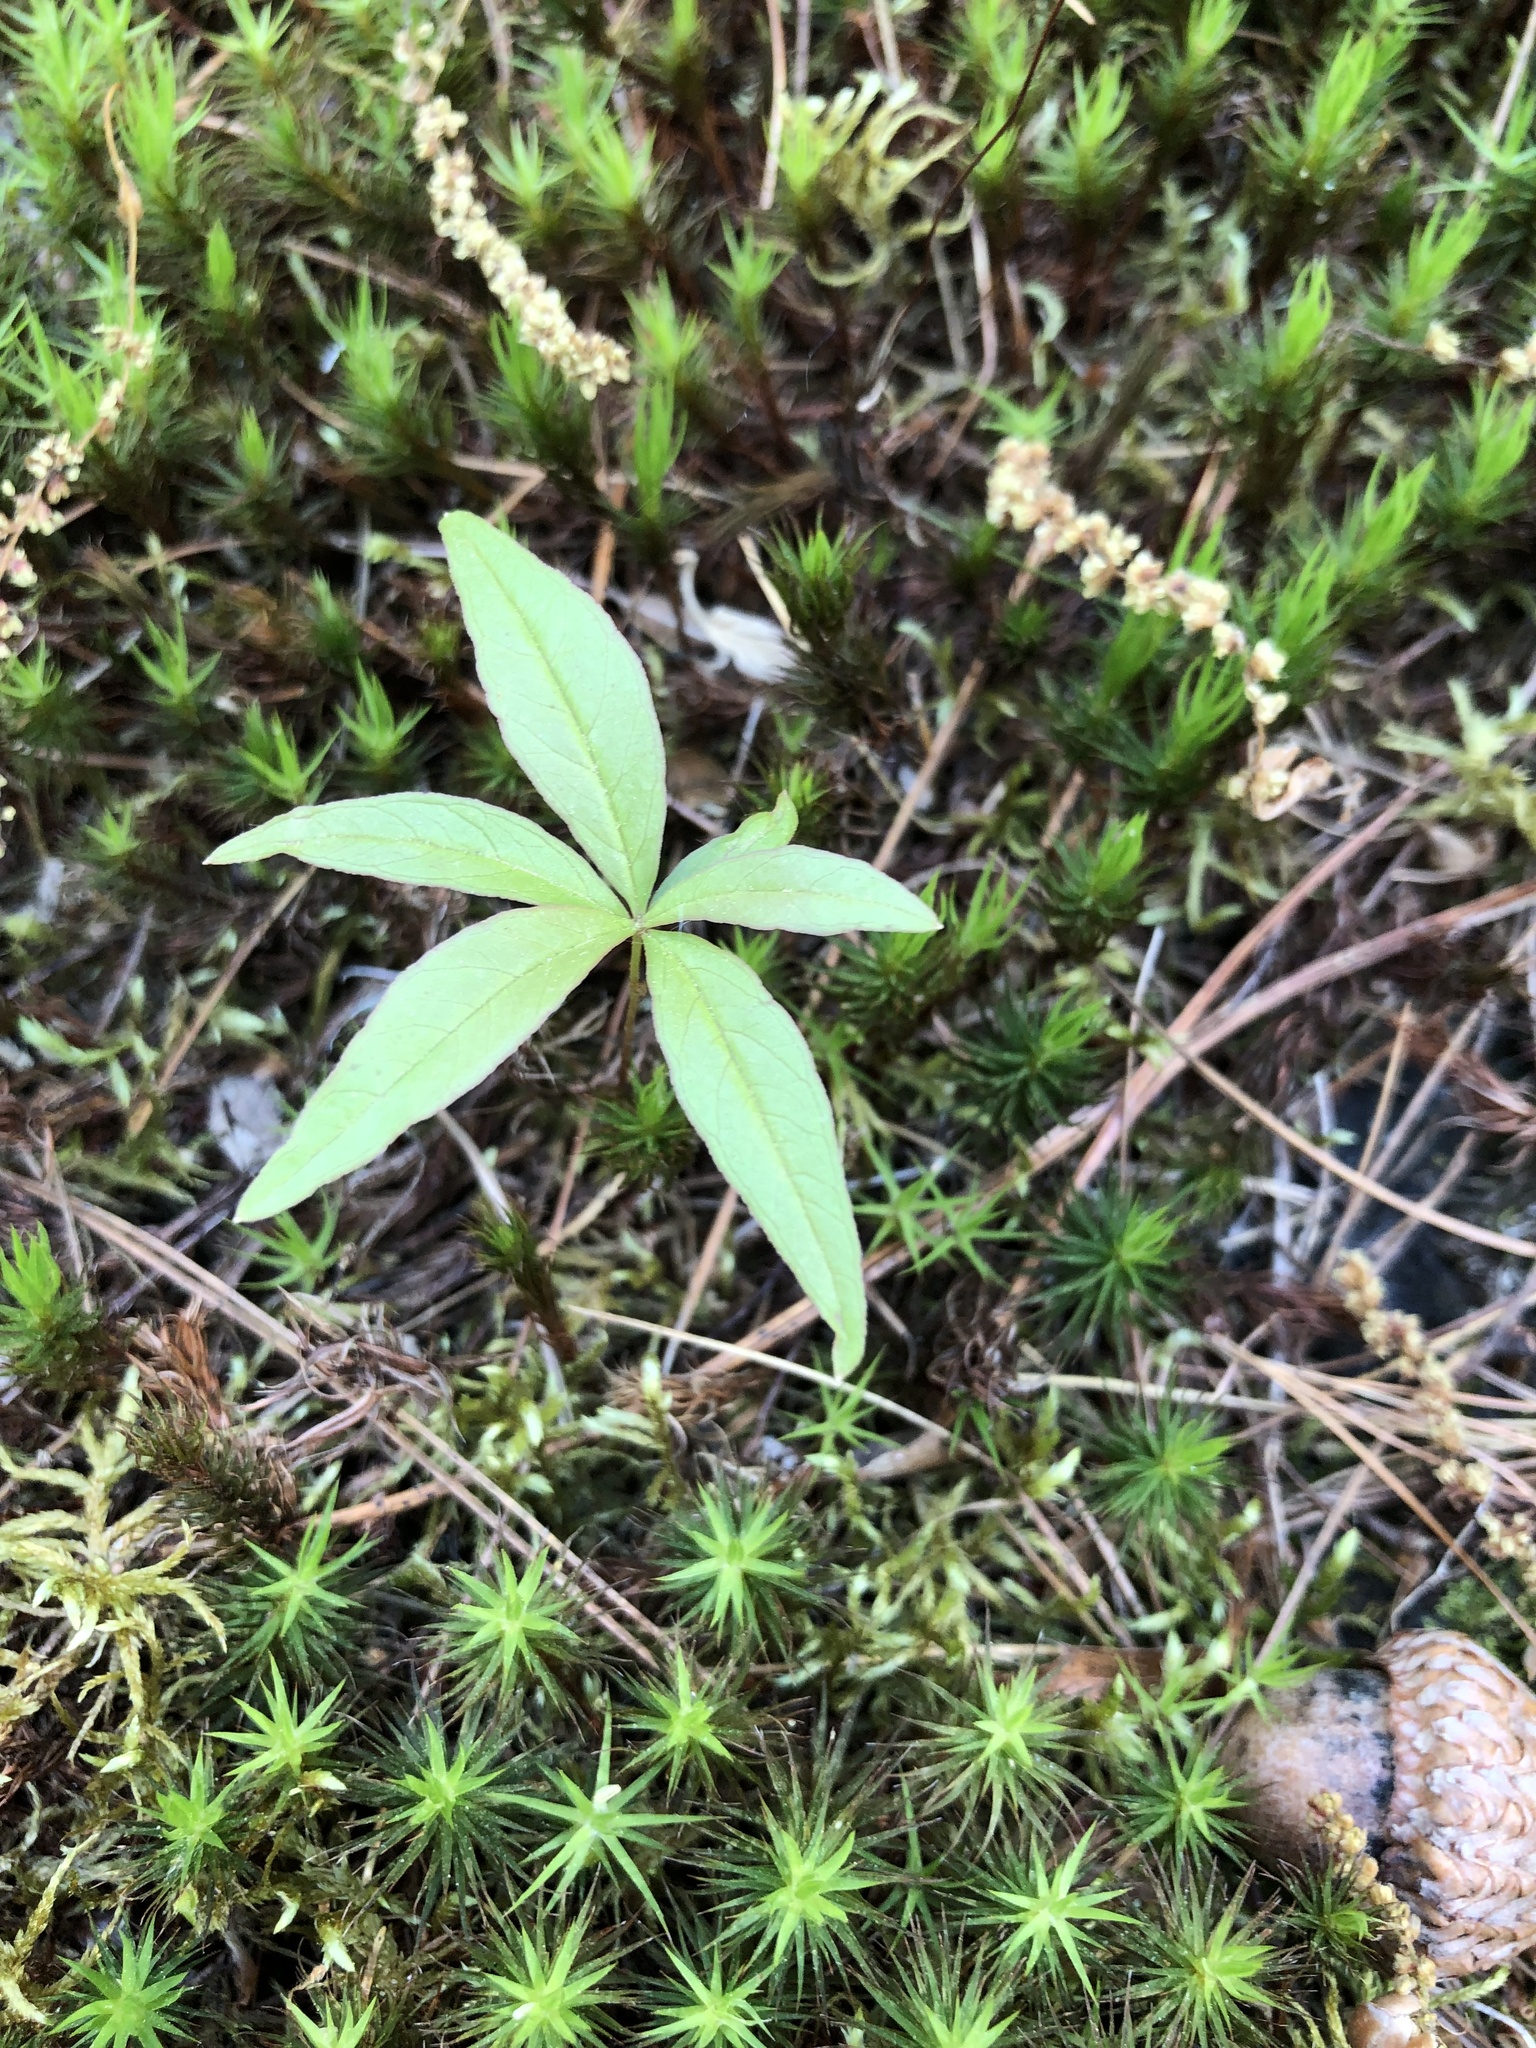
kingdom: Plantae
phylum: Tracheophyta
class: Magnoliopsida
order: Ericales
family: Primulaceae
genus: Lysimachia
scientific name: Lysimachia borealis
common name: American starflower
